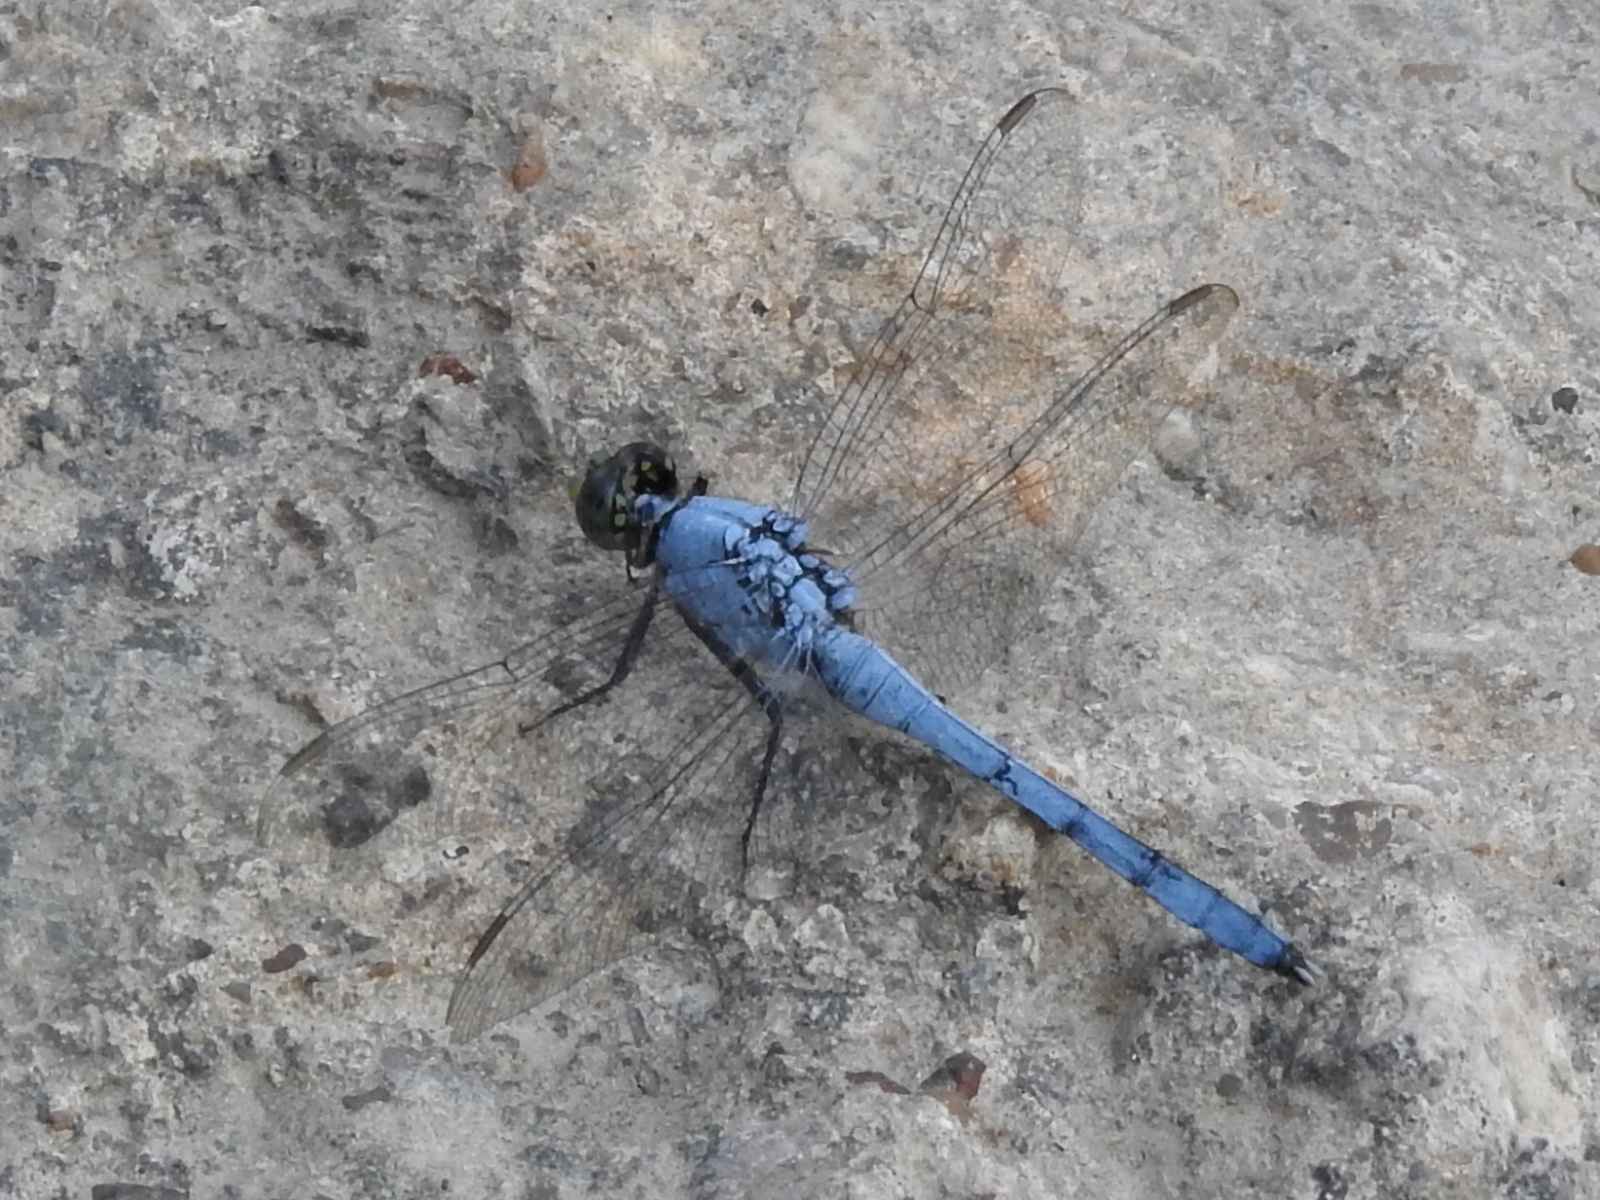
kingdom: Animalia
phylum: Arthropoda
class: Insecta
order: Odonata
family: Libellulidae
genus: Erythemis
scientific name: Erythemis simplicicollis
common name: Eastern pondhawk
